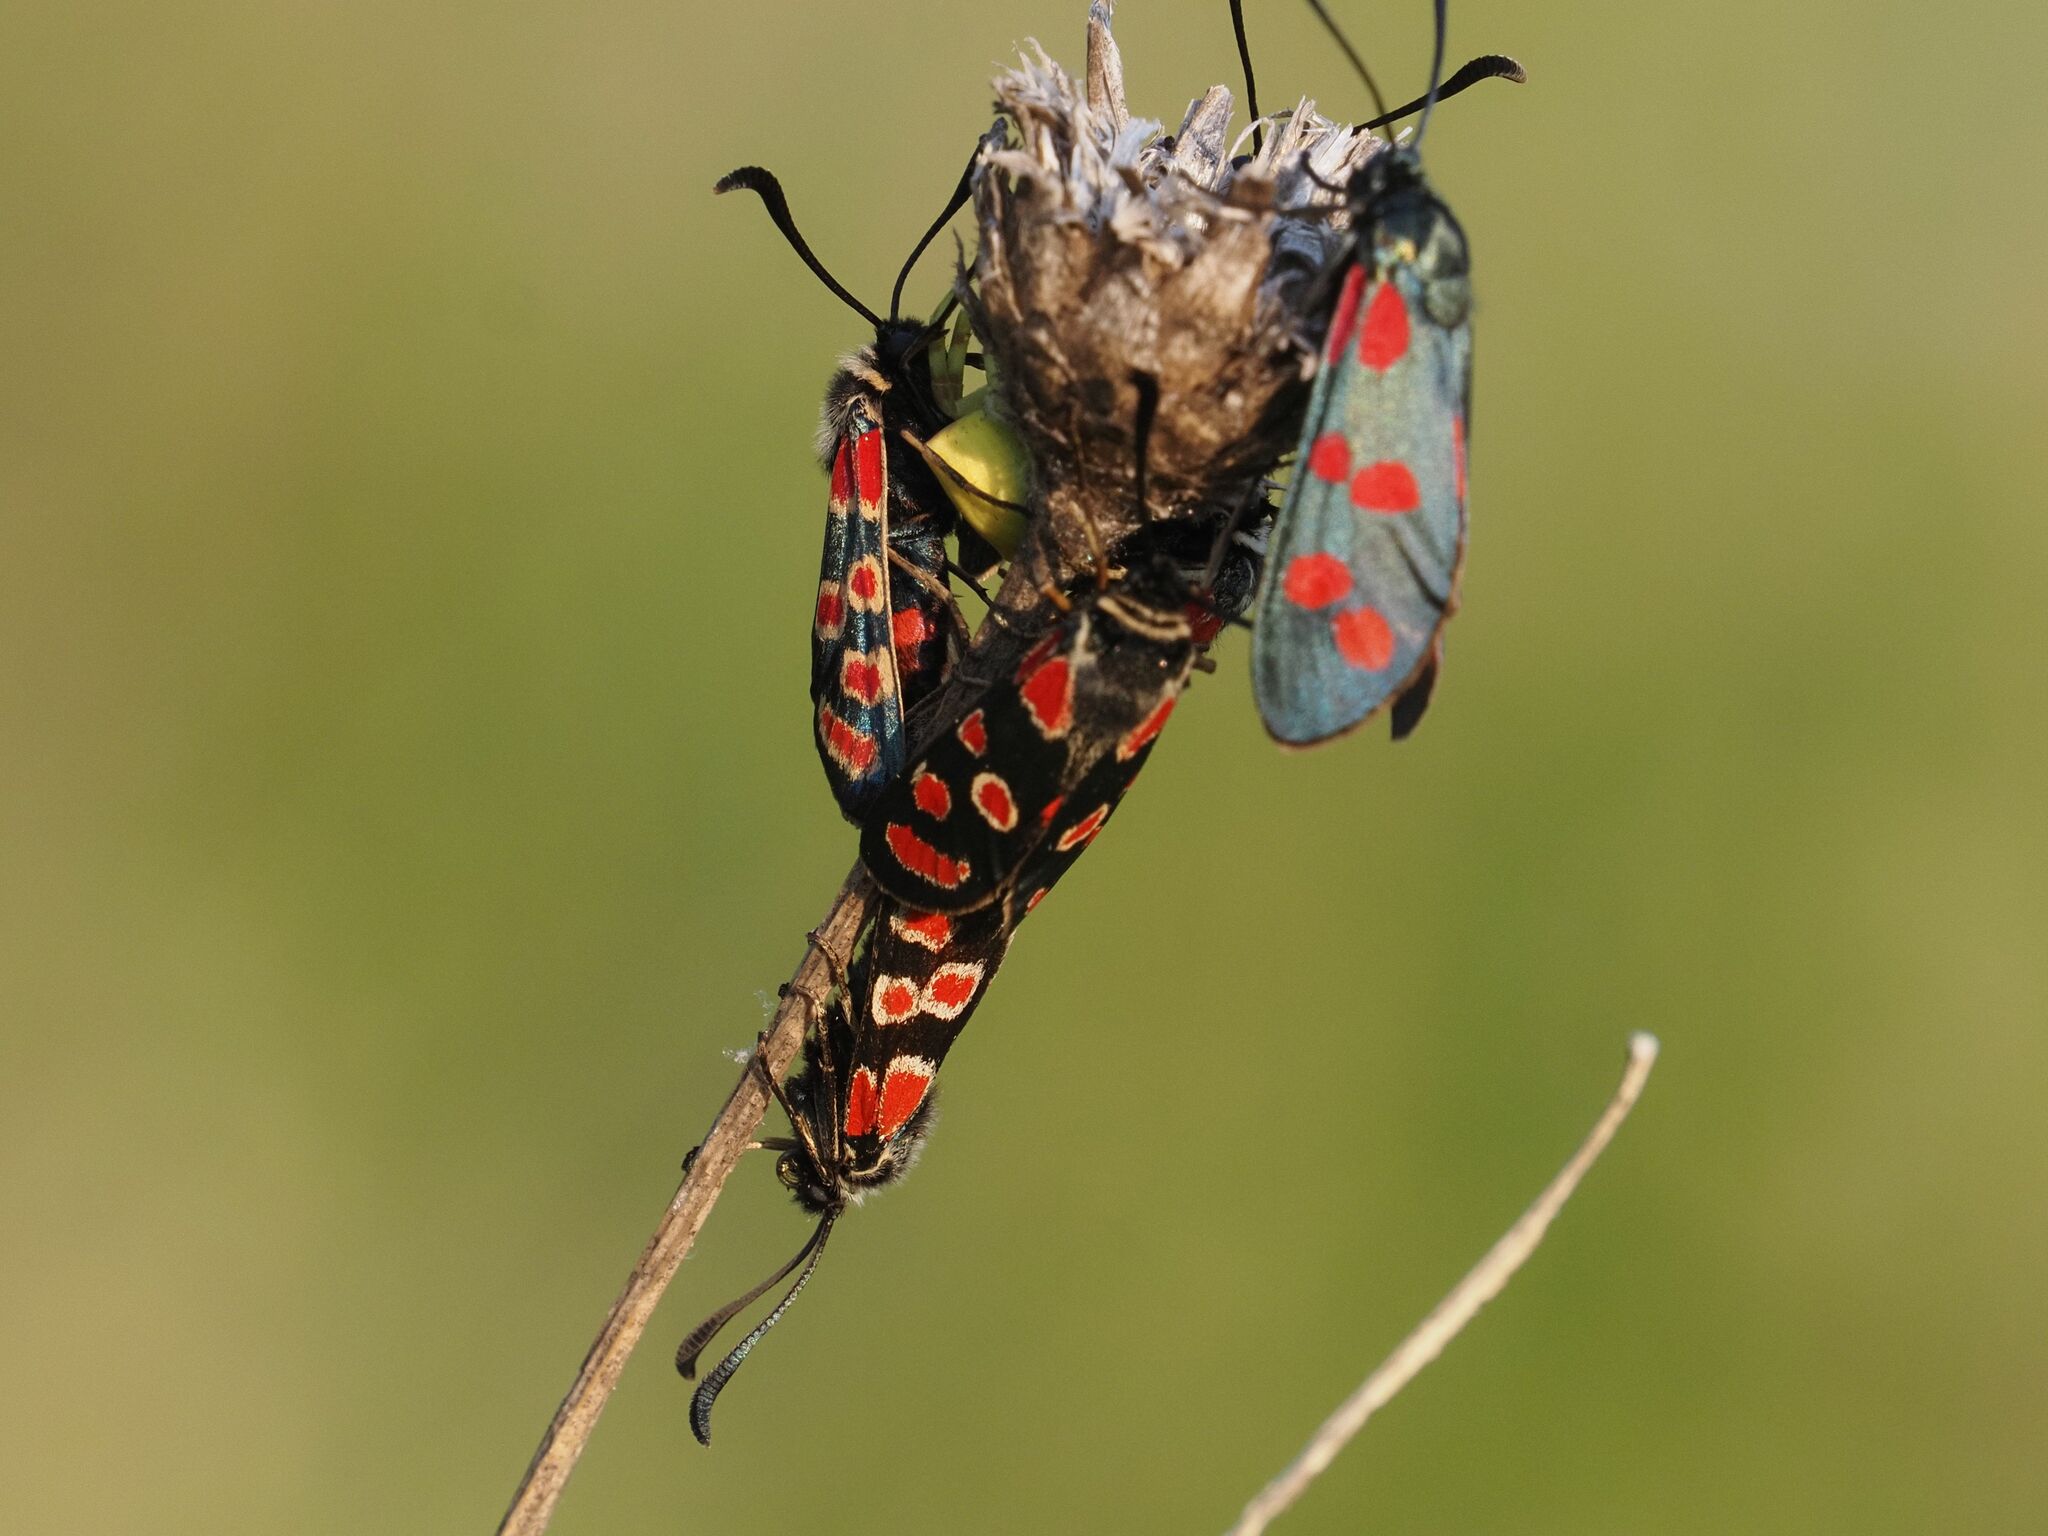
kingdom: Animalia
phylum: Arthropoda
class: Insecta
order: Lepidoptera
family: Zygaenidae
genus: Zygaena
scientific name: Zygaena carniolica
